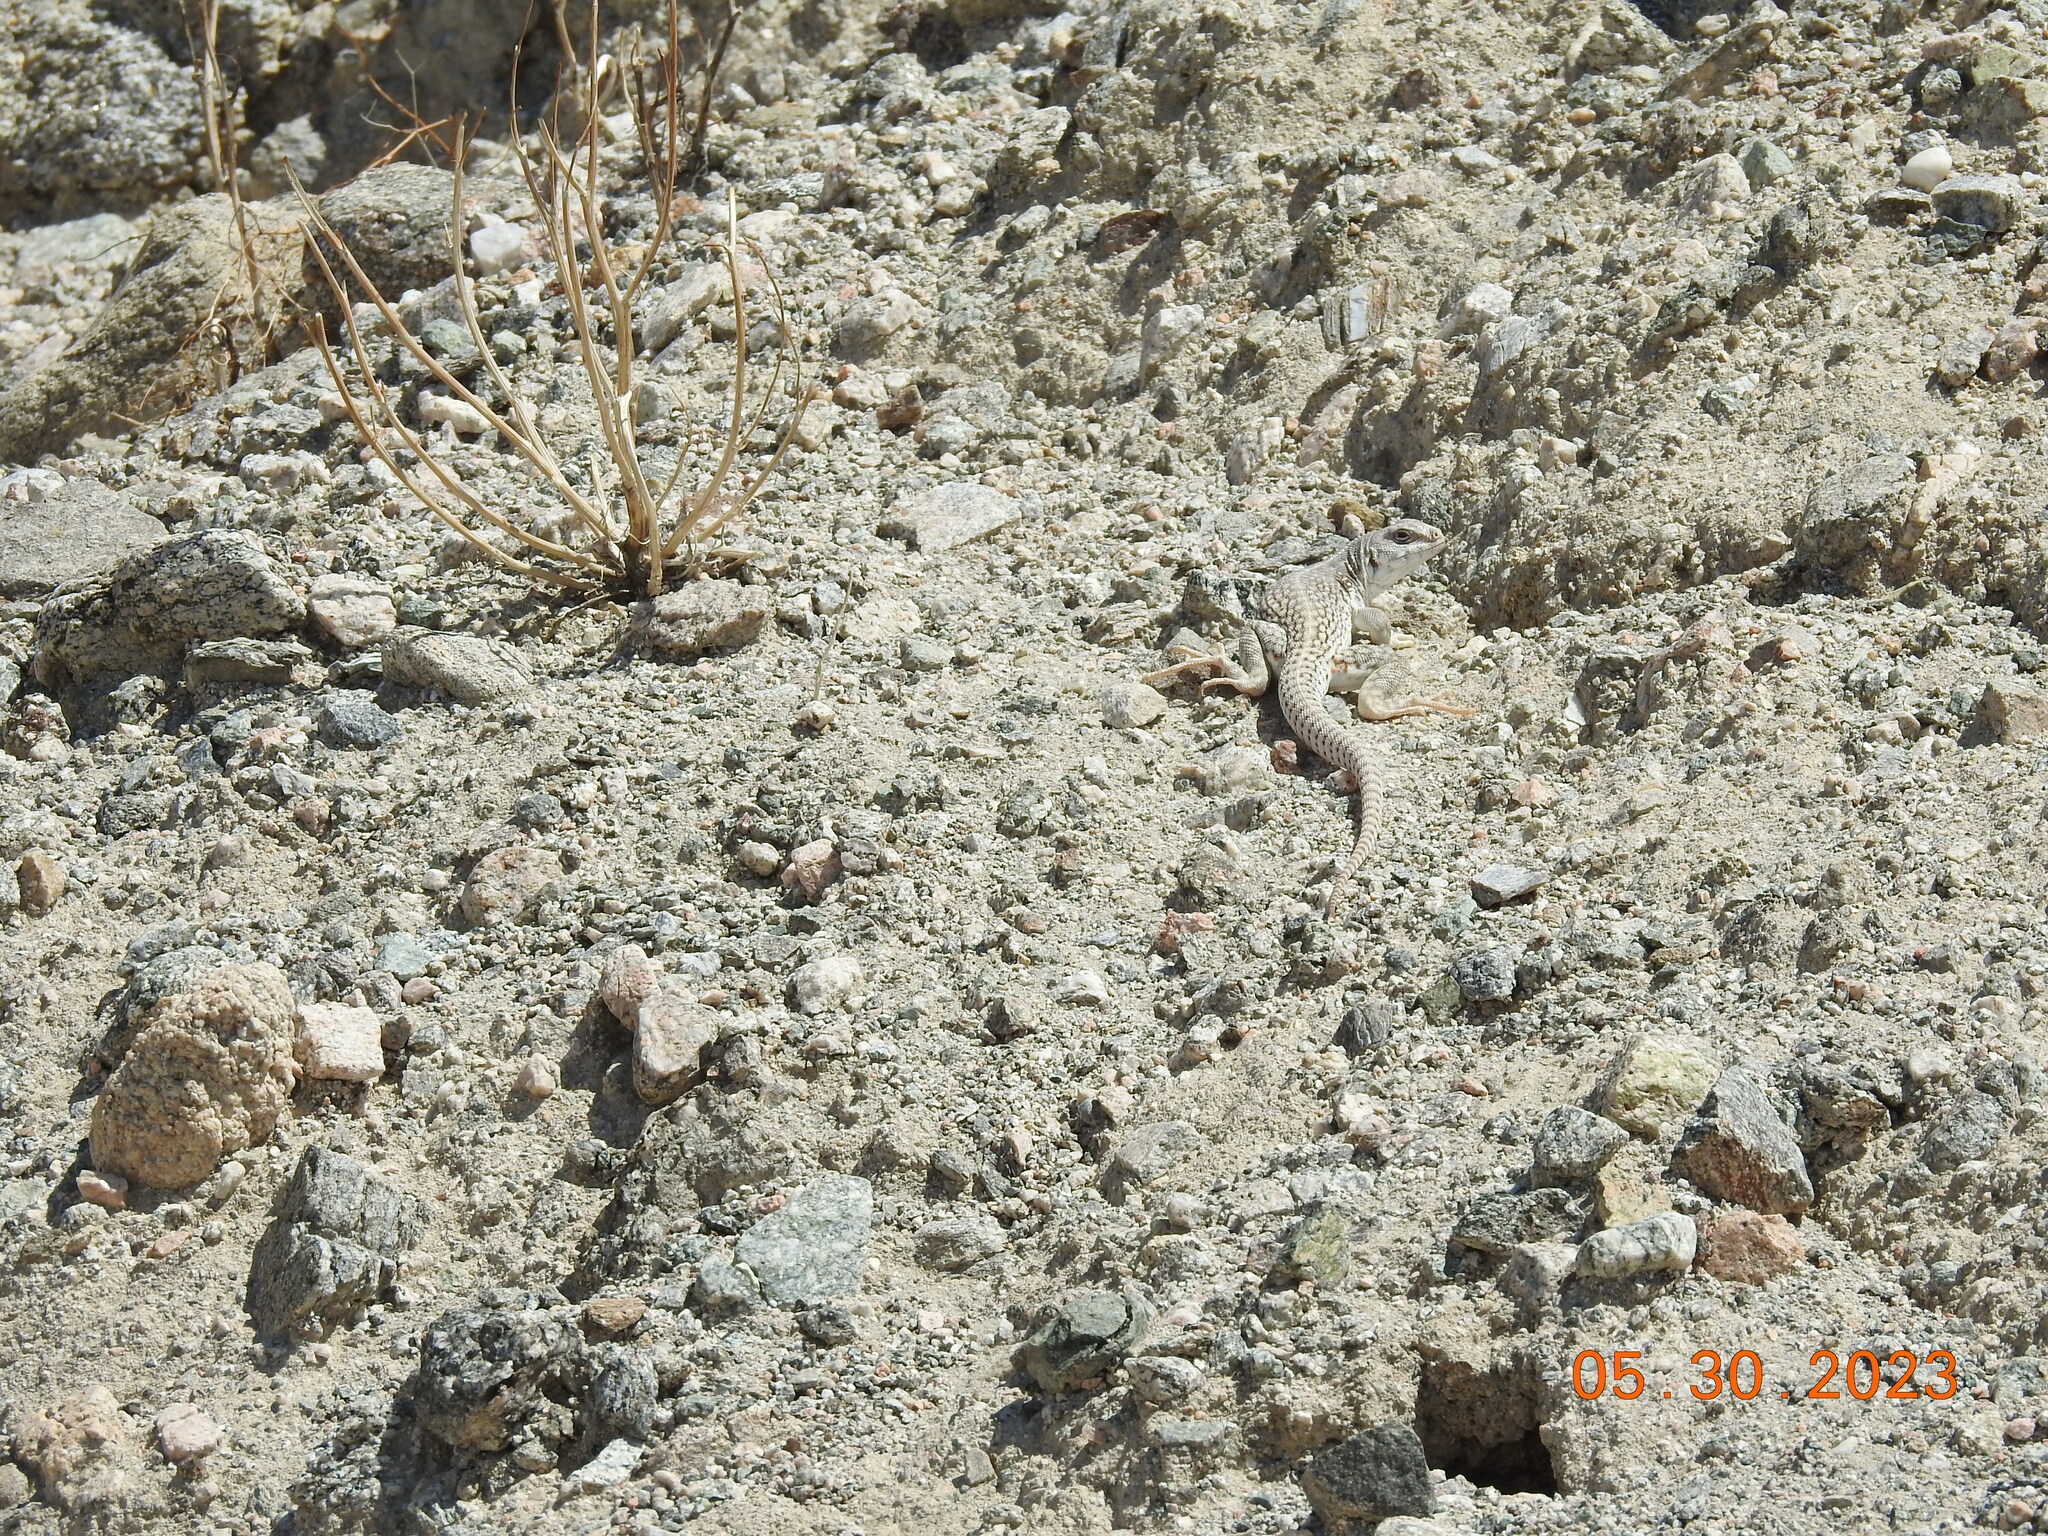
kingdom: Animalia
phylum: Chordata
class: Squamata
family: Iguanidae
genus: Dipsosaurus
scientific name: Dipsosaurus dorsalis
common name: Desert iguana
